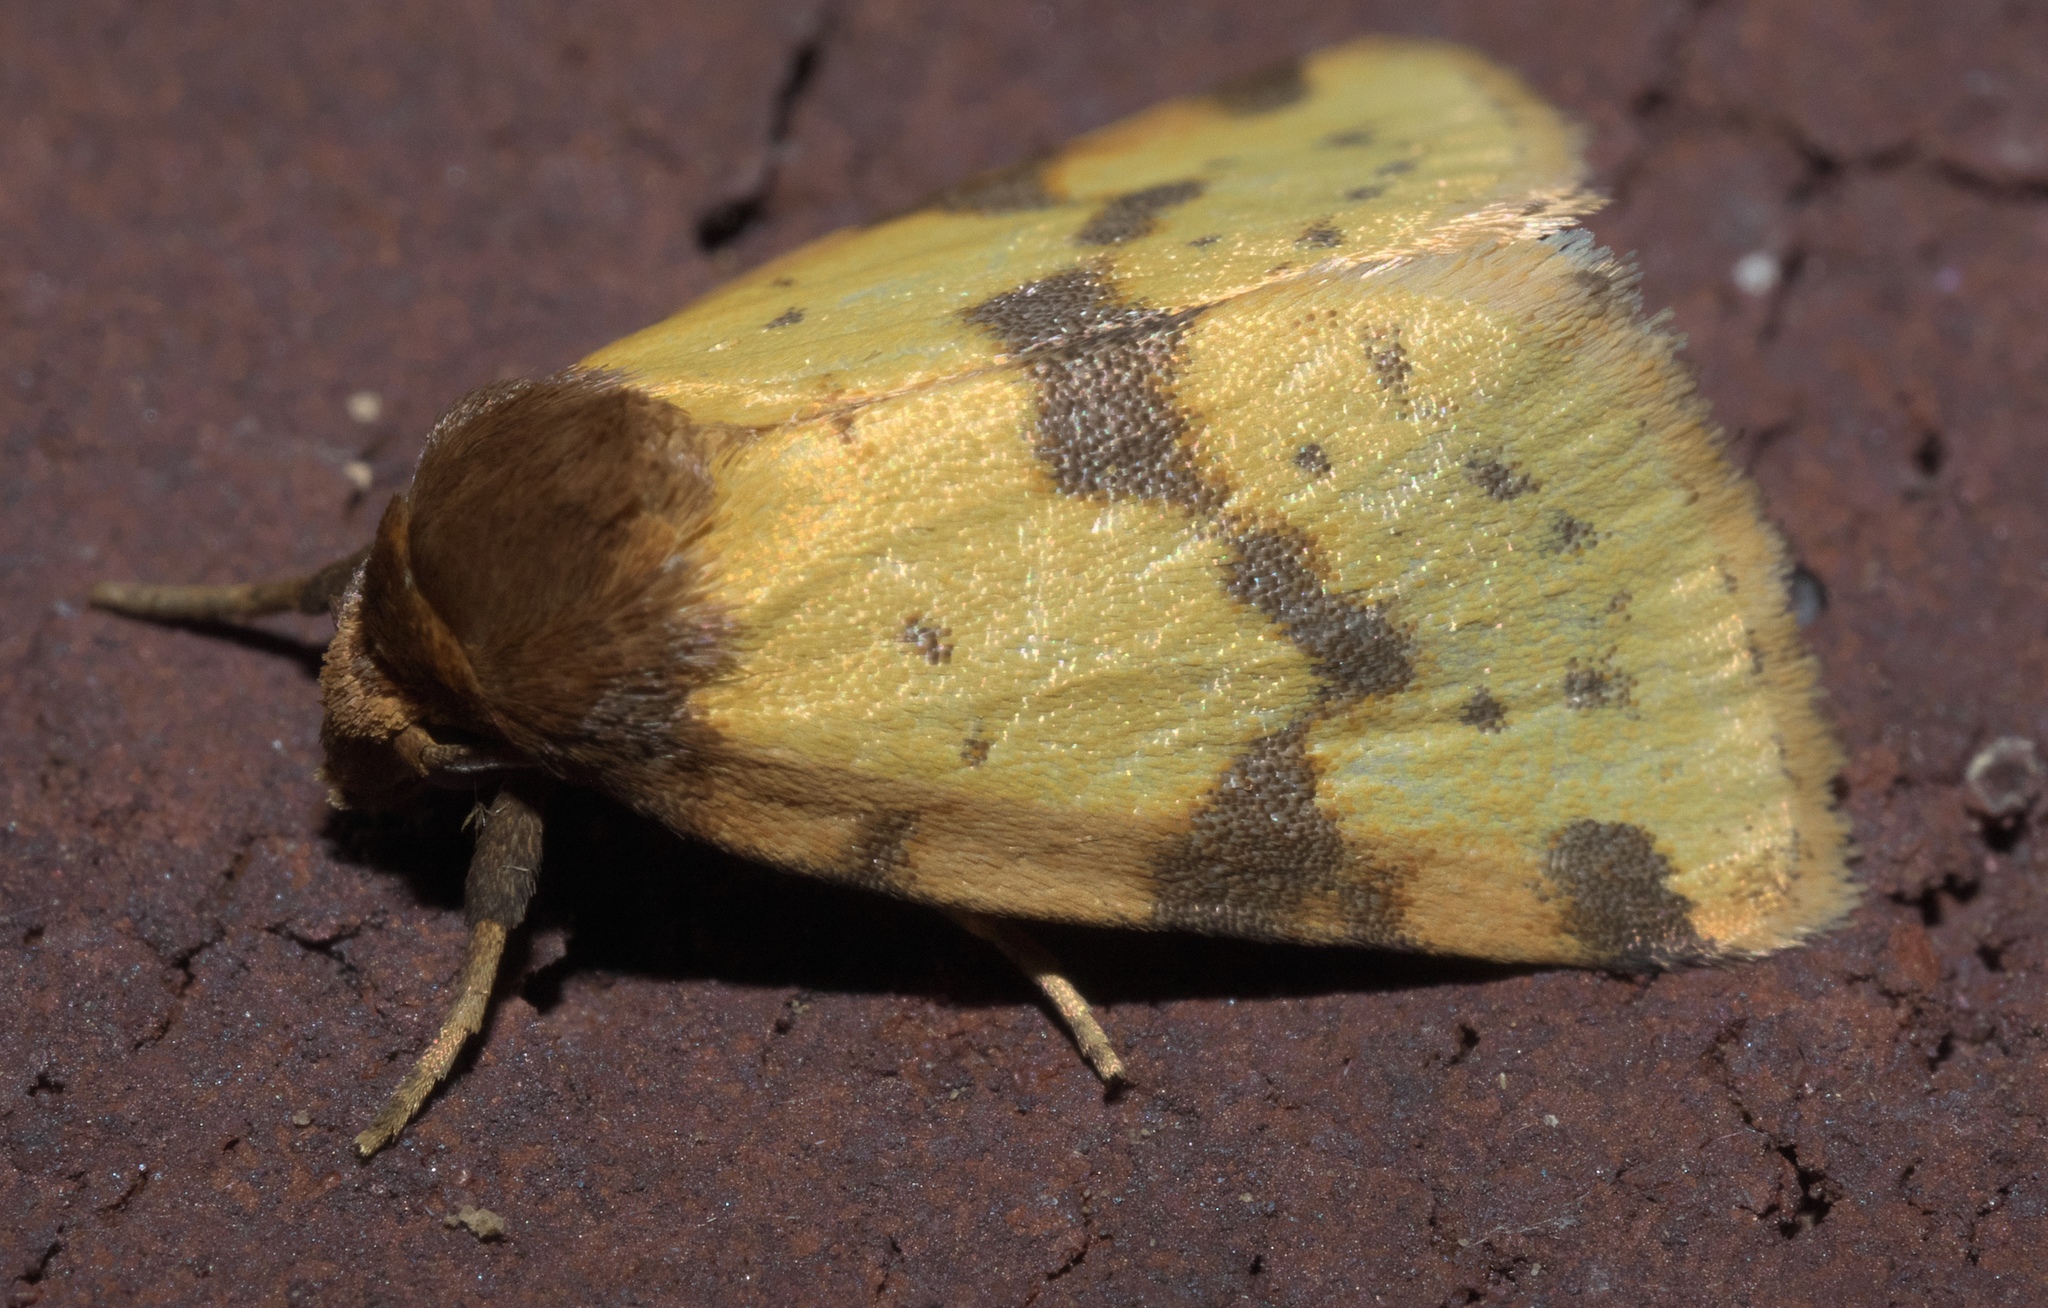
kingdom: Animalia
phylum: Arthropoda
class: Insecta
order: Lepidoptera
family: Noctuidae
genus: Azenia
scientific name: Azenia obtusa
